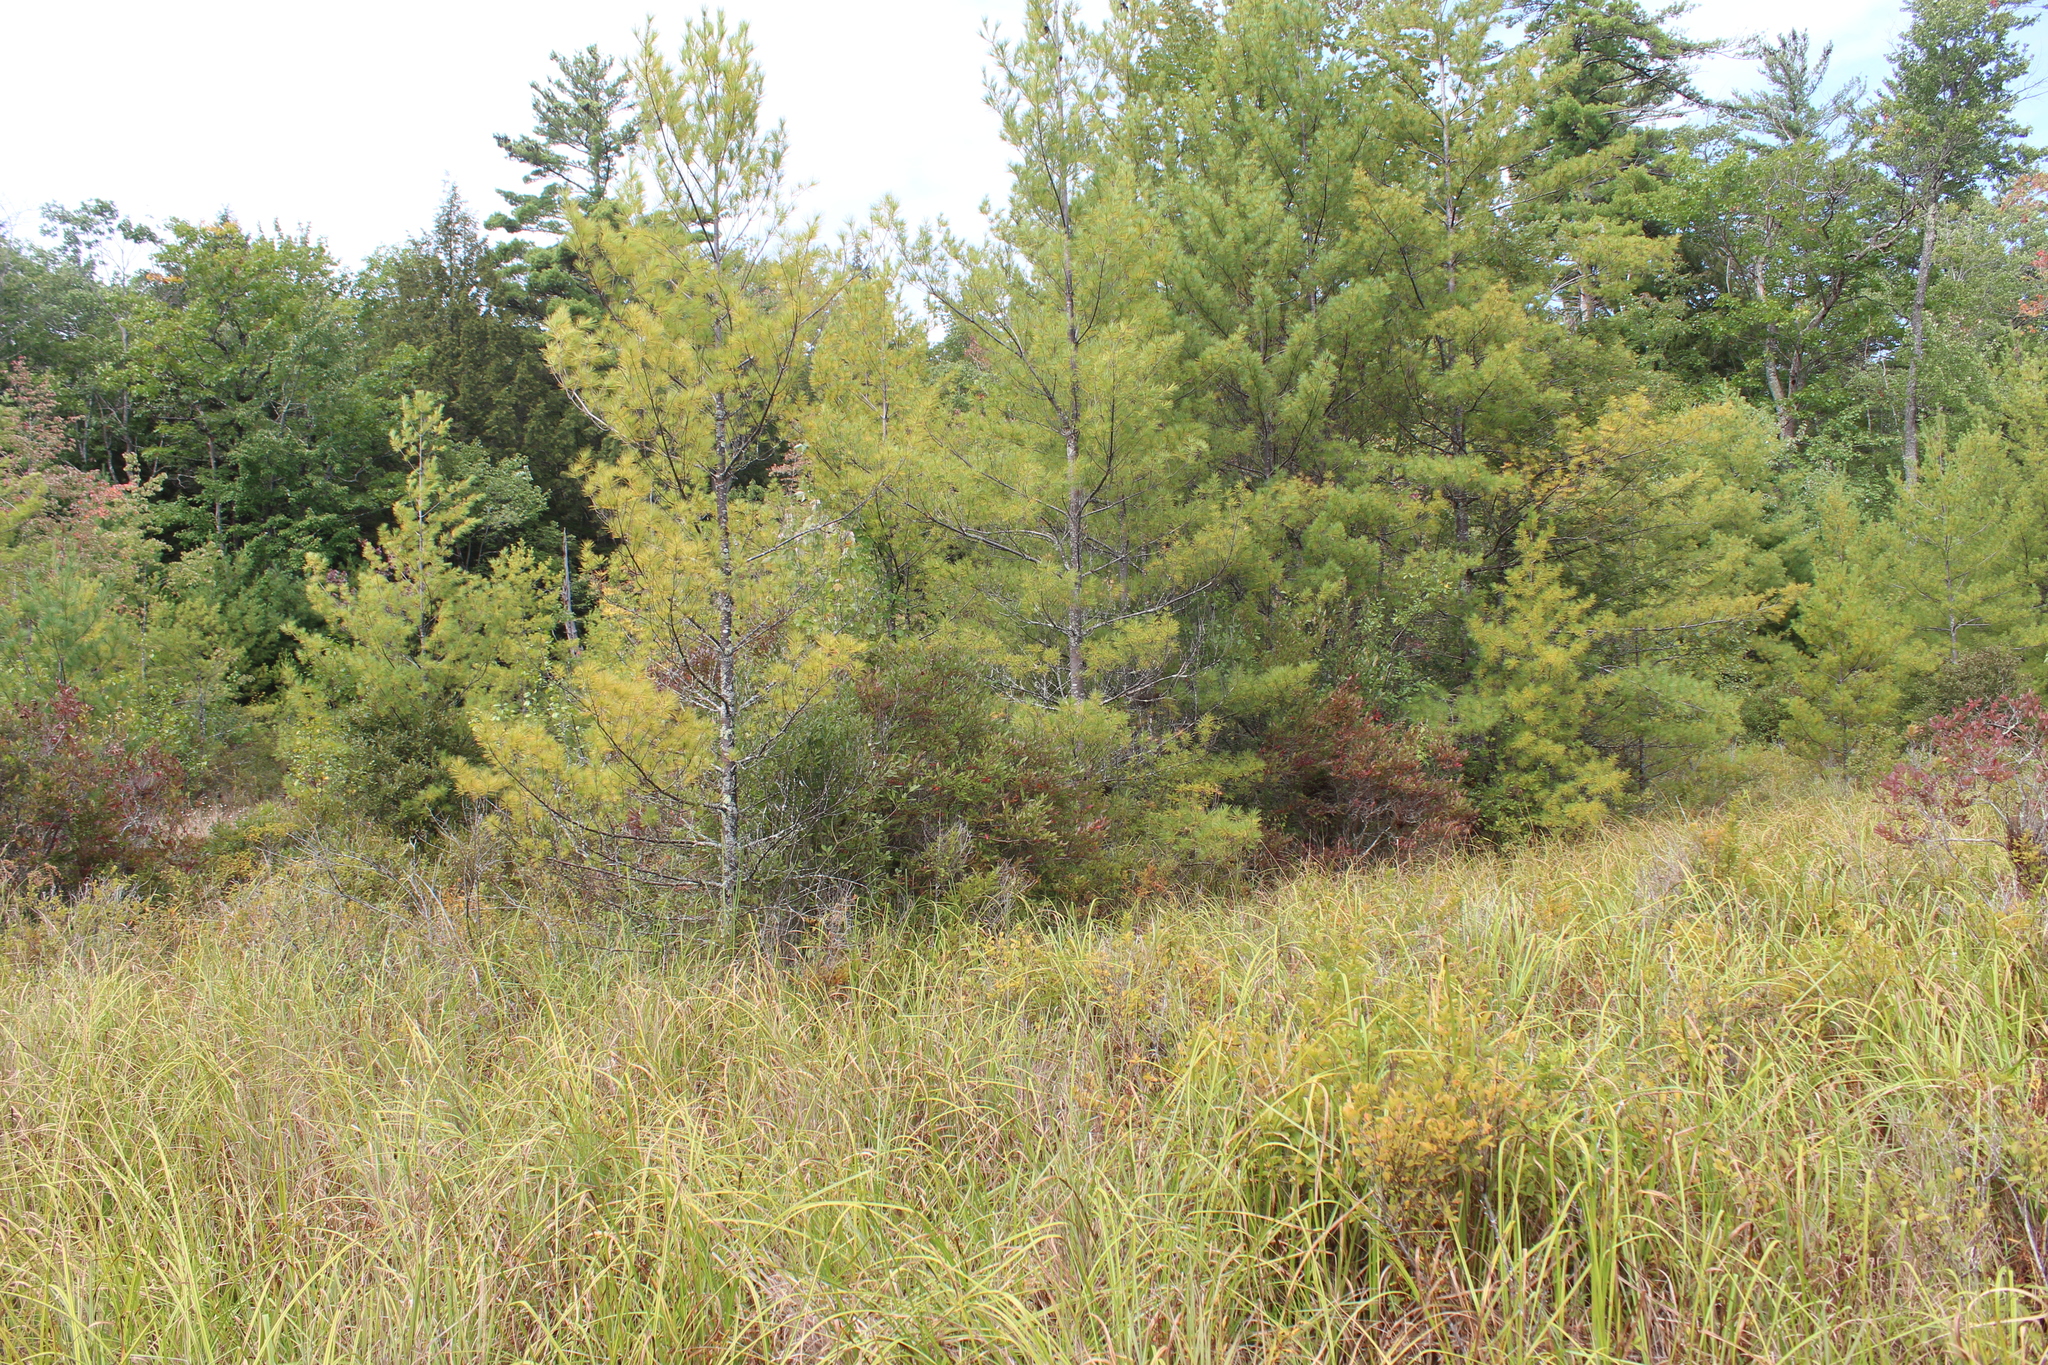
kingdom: Plantae
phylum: Tracheophyta
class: Pinopsida
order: Pinales
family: Pinaceae
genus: Pinus
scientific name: Pinus strobus
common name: Weymouth pine
